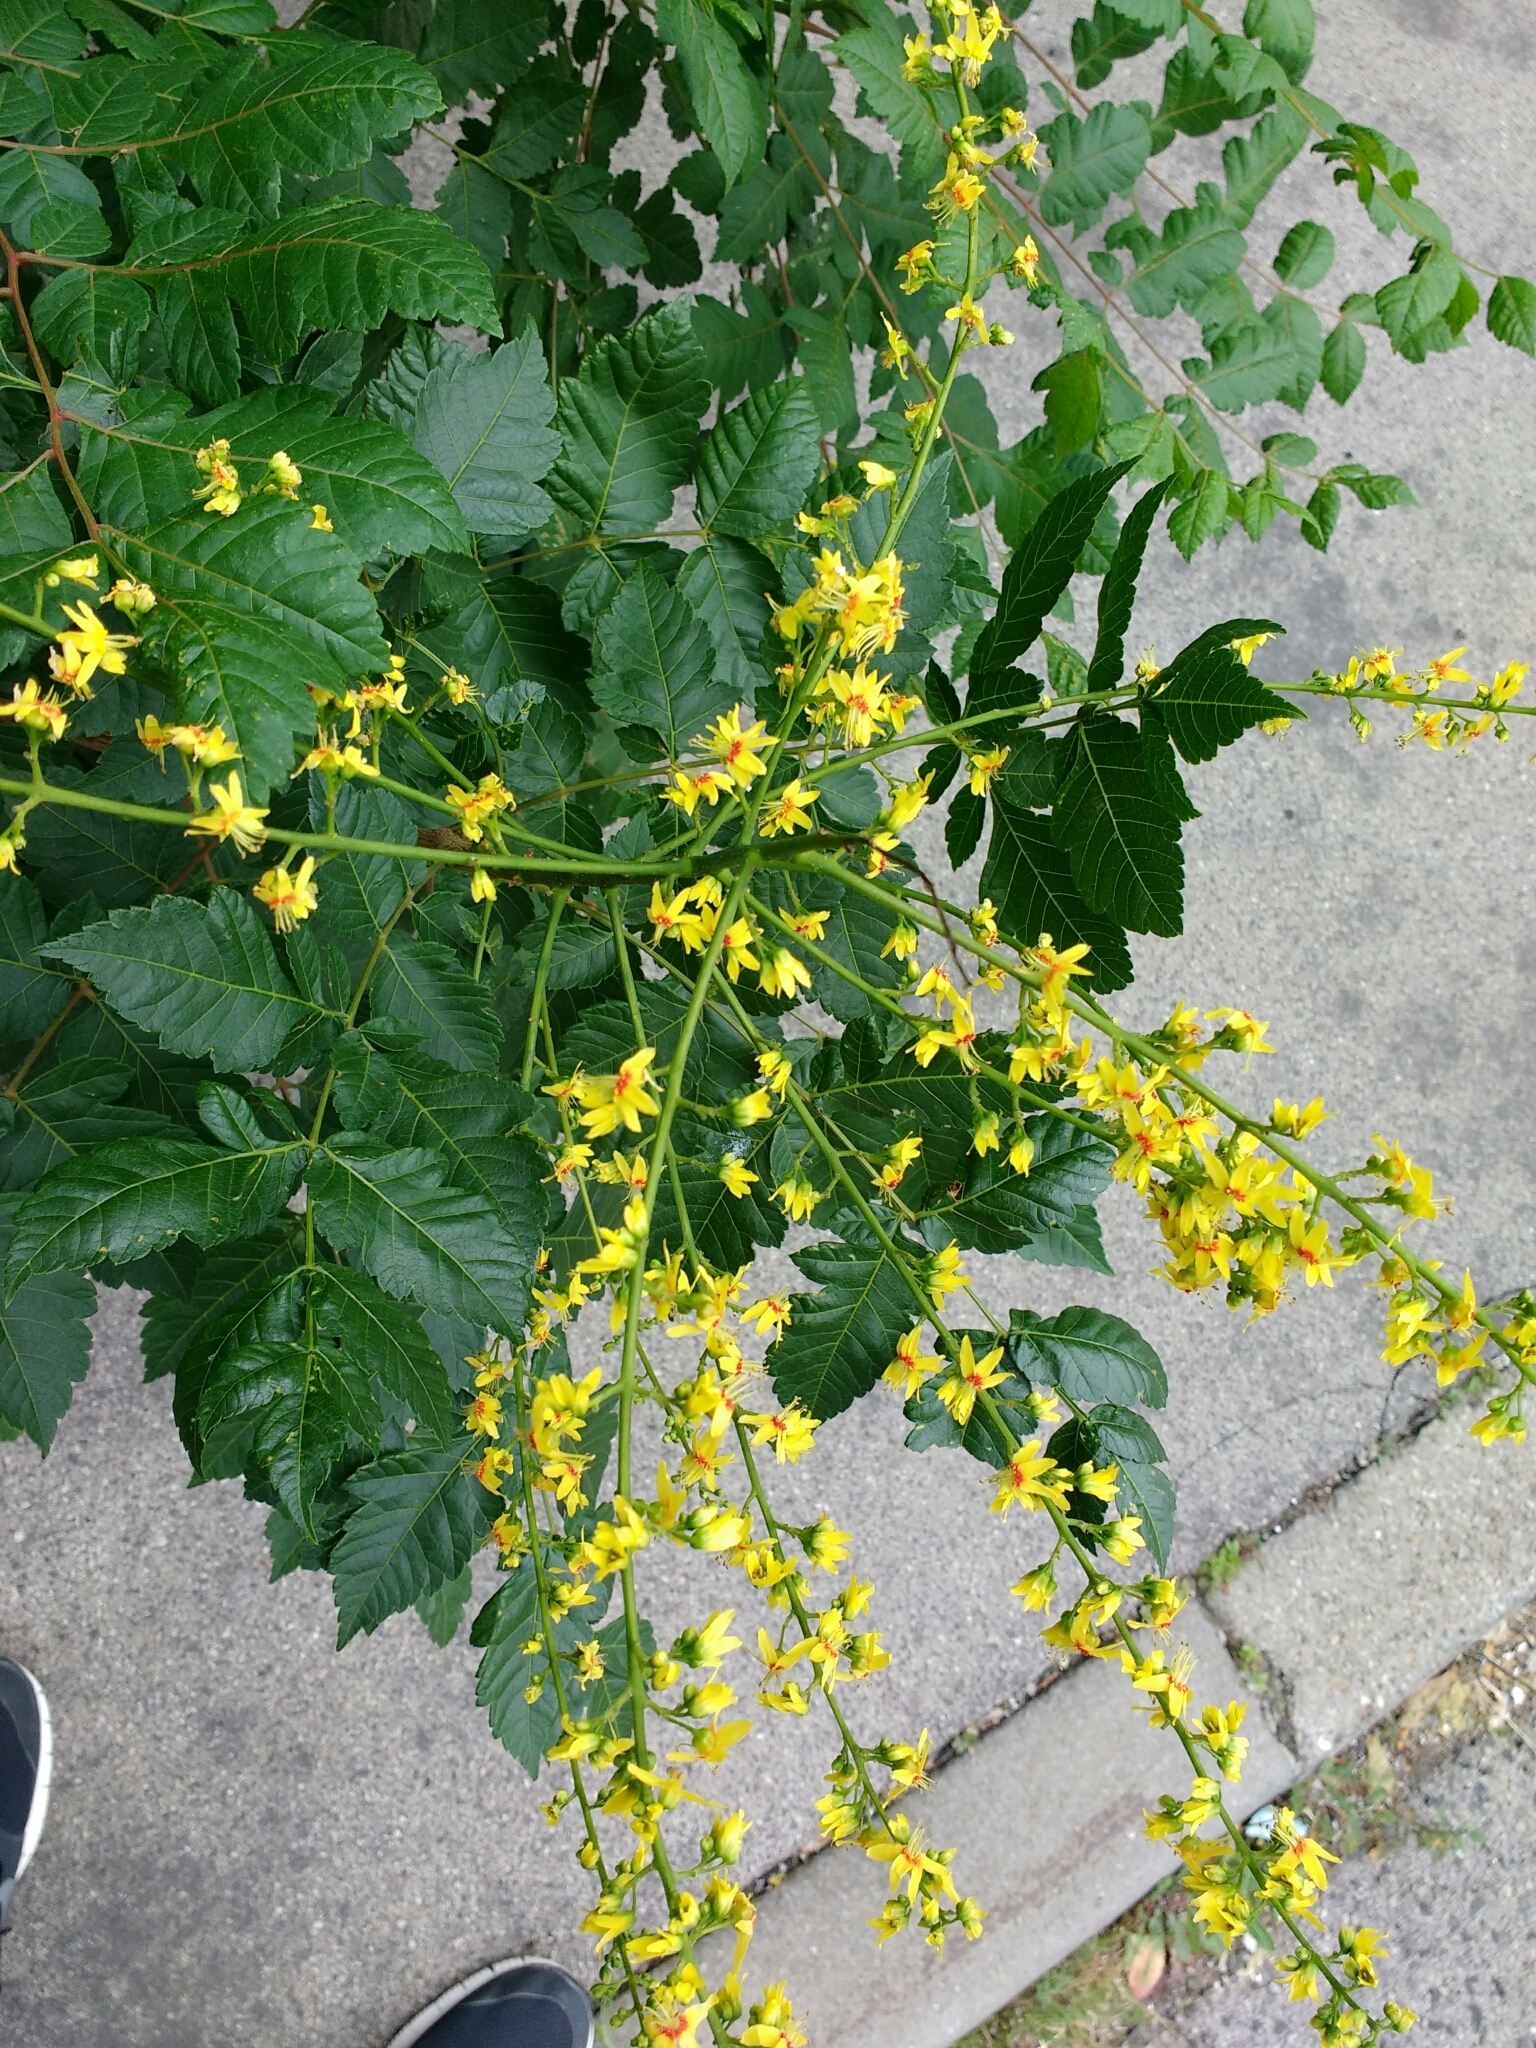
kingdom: Plantae
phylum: Tracheophyta
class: Magnoliopsida
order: Sapindales
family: Sapindaceae
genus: Koelreuteria
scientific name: Koelreuteria paniculata
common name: Pride-of-india
